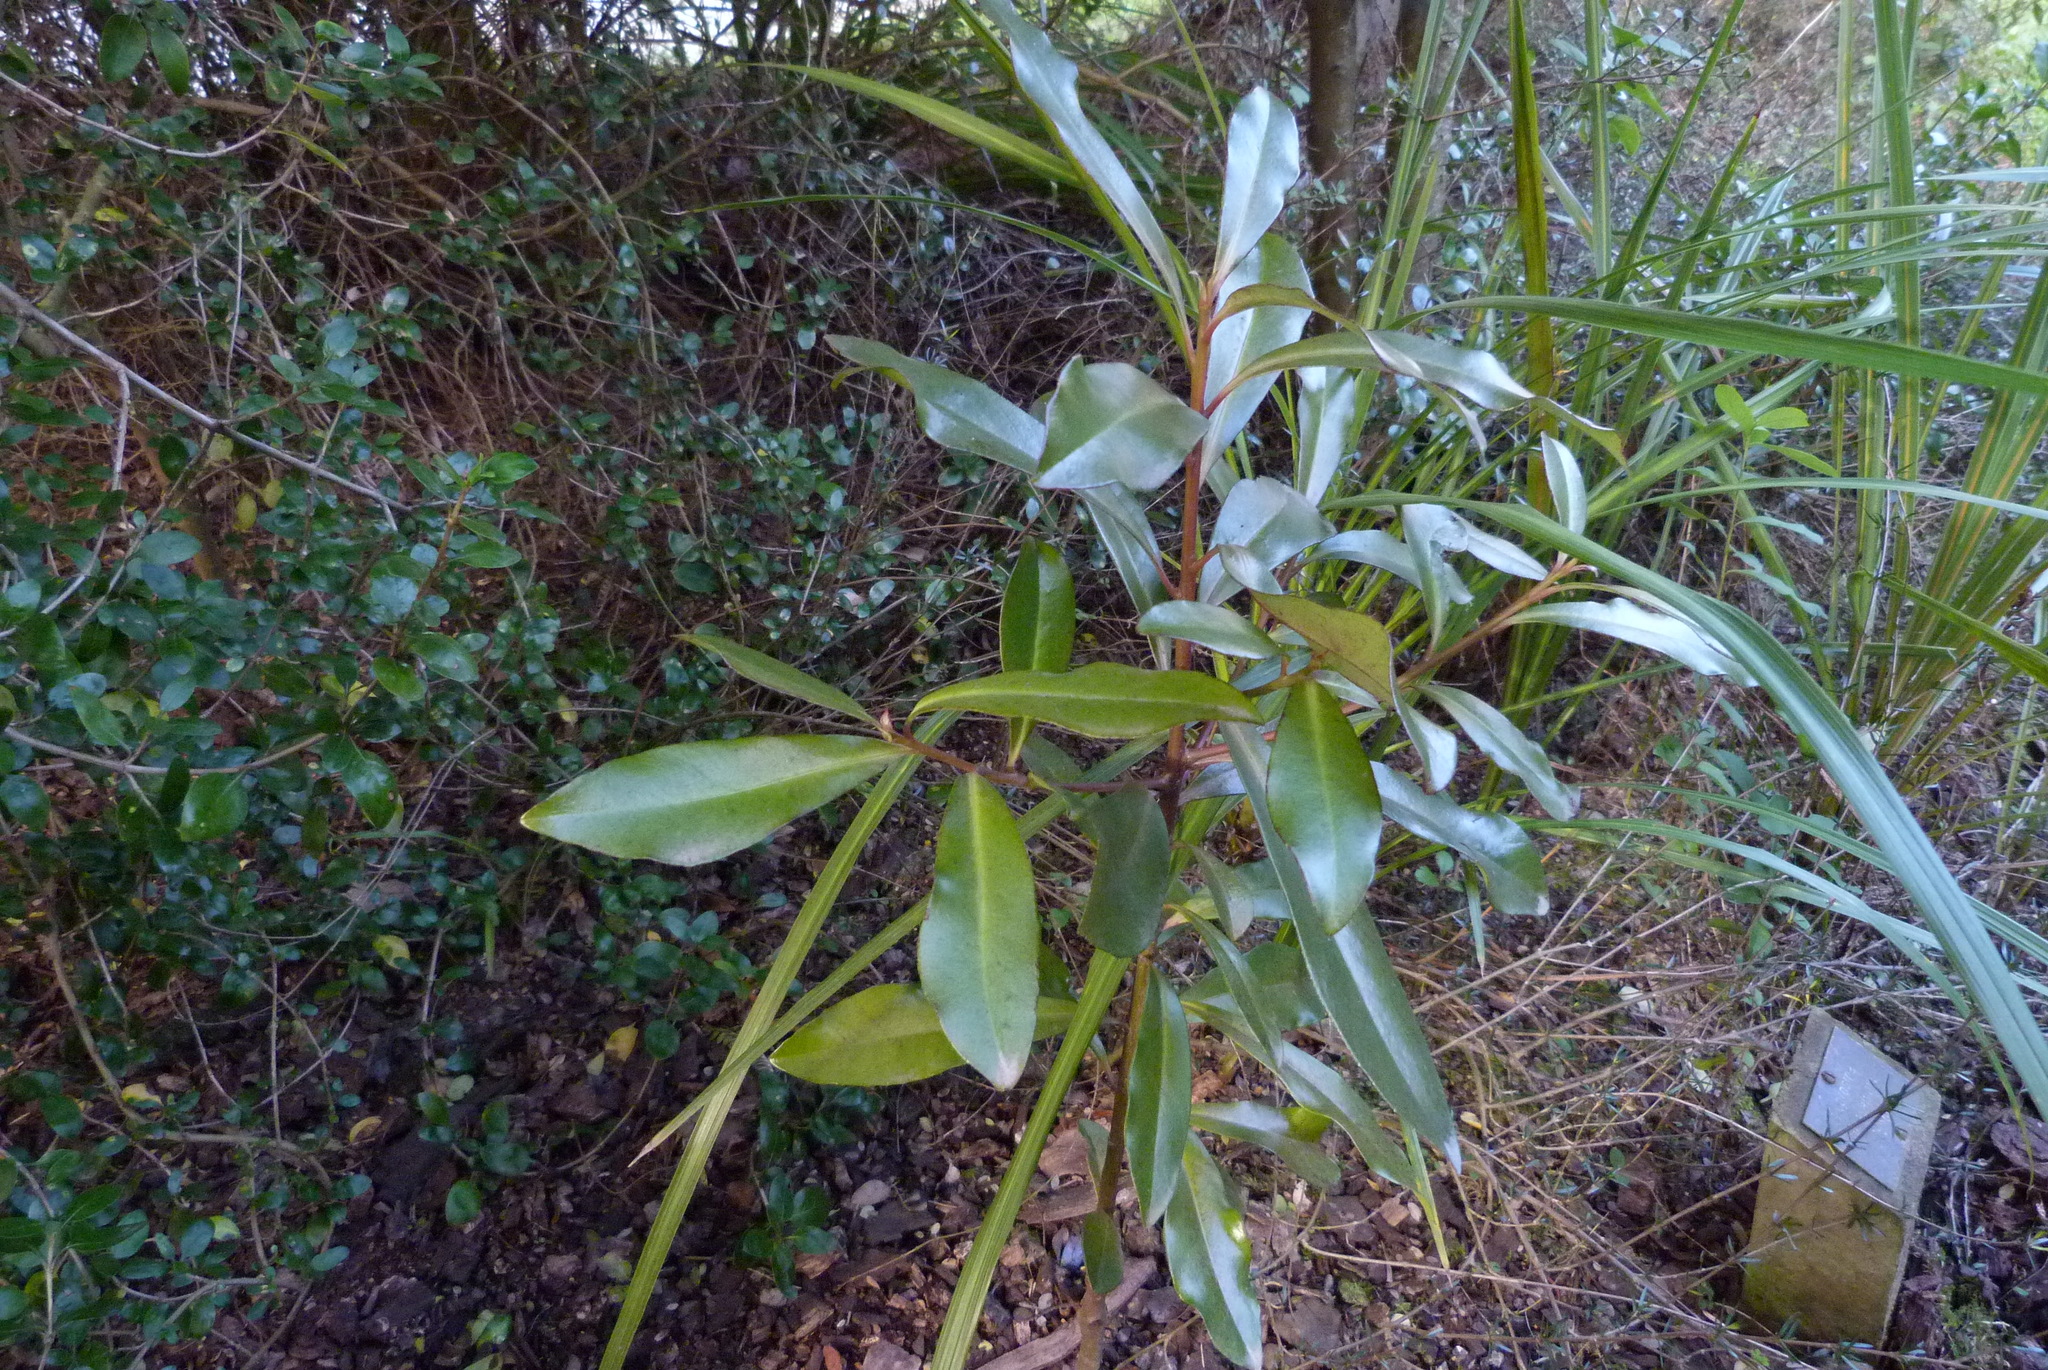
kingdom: Plantae
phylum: Tracheophyta
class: Magnoliopsida
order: Ericales
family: Primulaceae
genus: Myrsine
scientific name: Myrsine salicina
